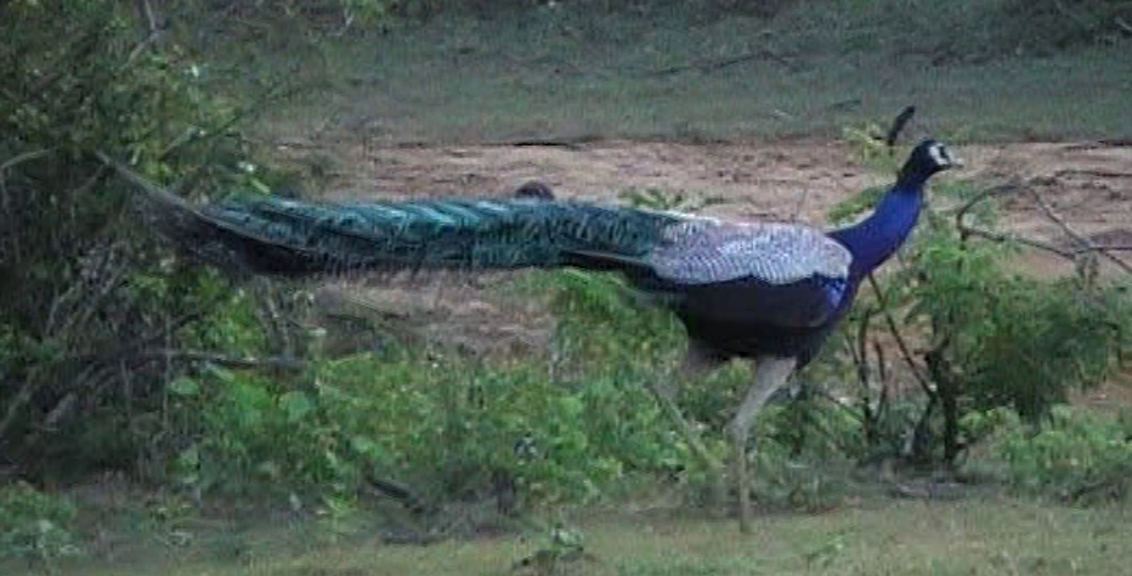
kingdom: Animalia
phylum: Chordata
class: Aves
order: Galliformes
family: Phasianidae
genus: Pavo
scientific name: Pavo cristatus
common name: Indian peafowl
